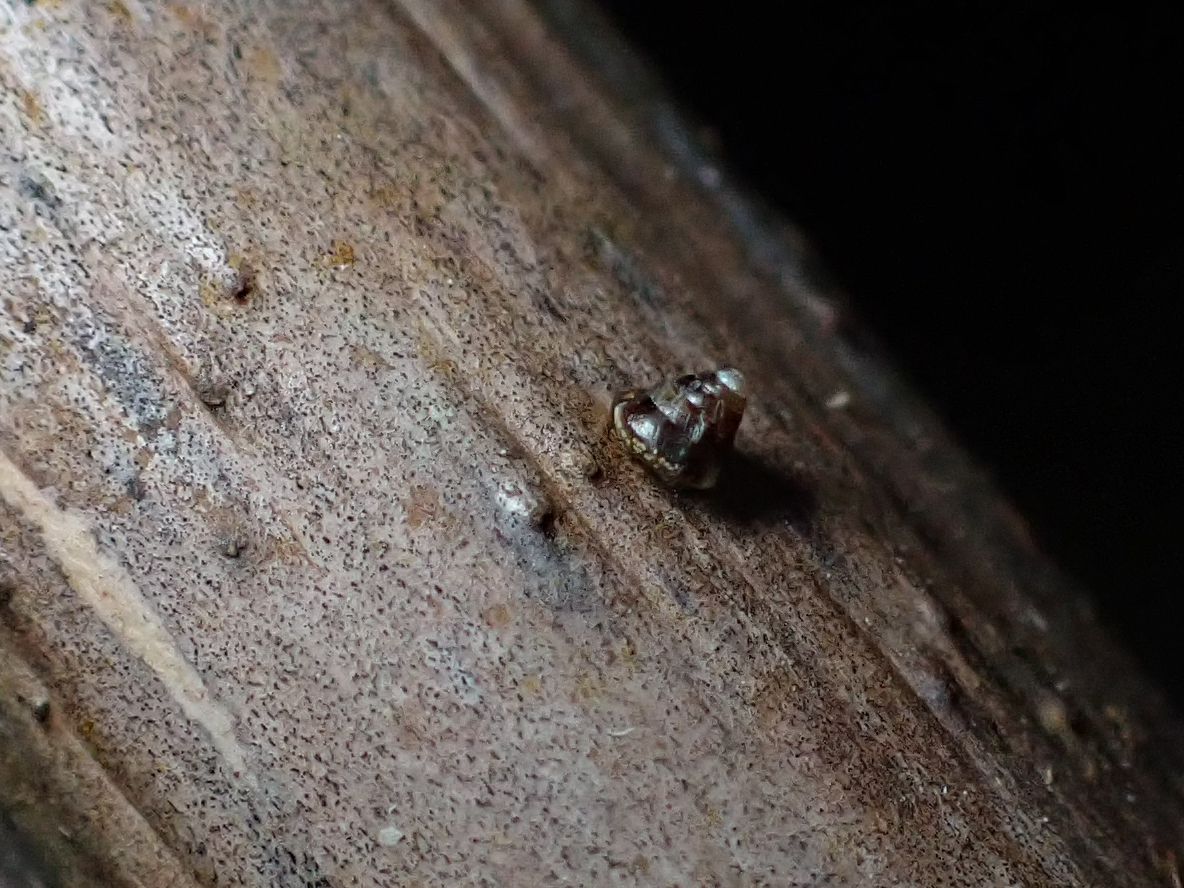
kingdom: Animalia
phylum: Mollusca
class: Gastropoda
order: Stylommatophora
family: Punctidae
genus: Phrixgnathus
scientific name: Phrixgnathus erigone
